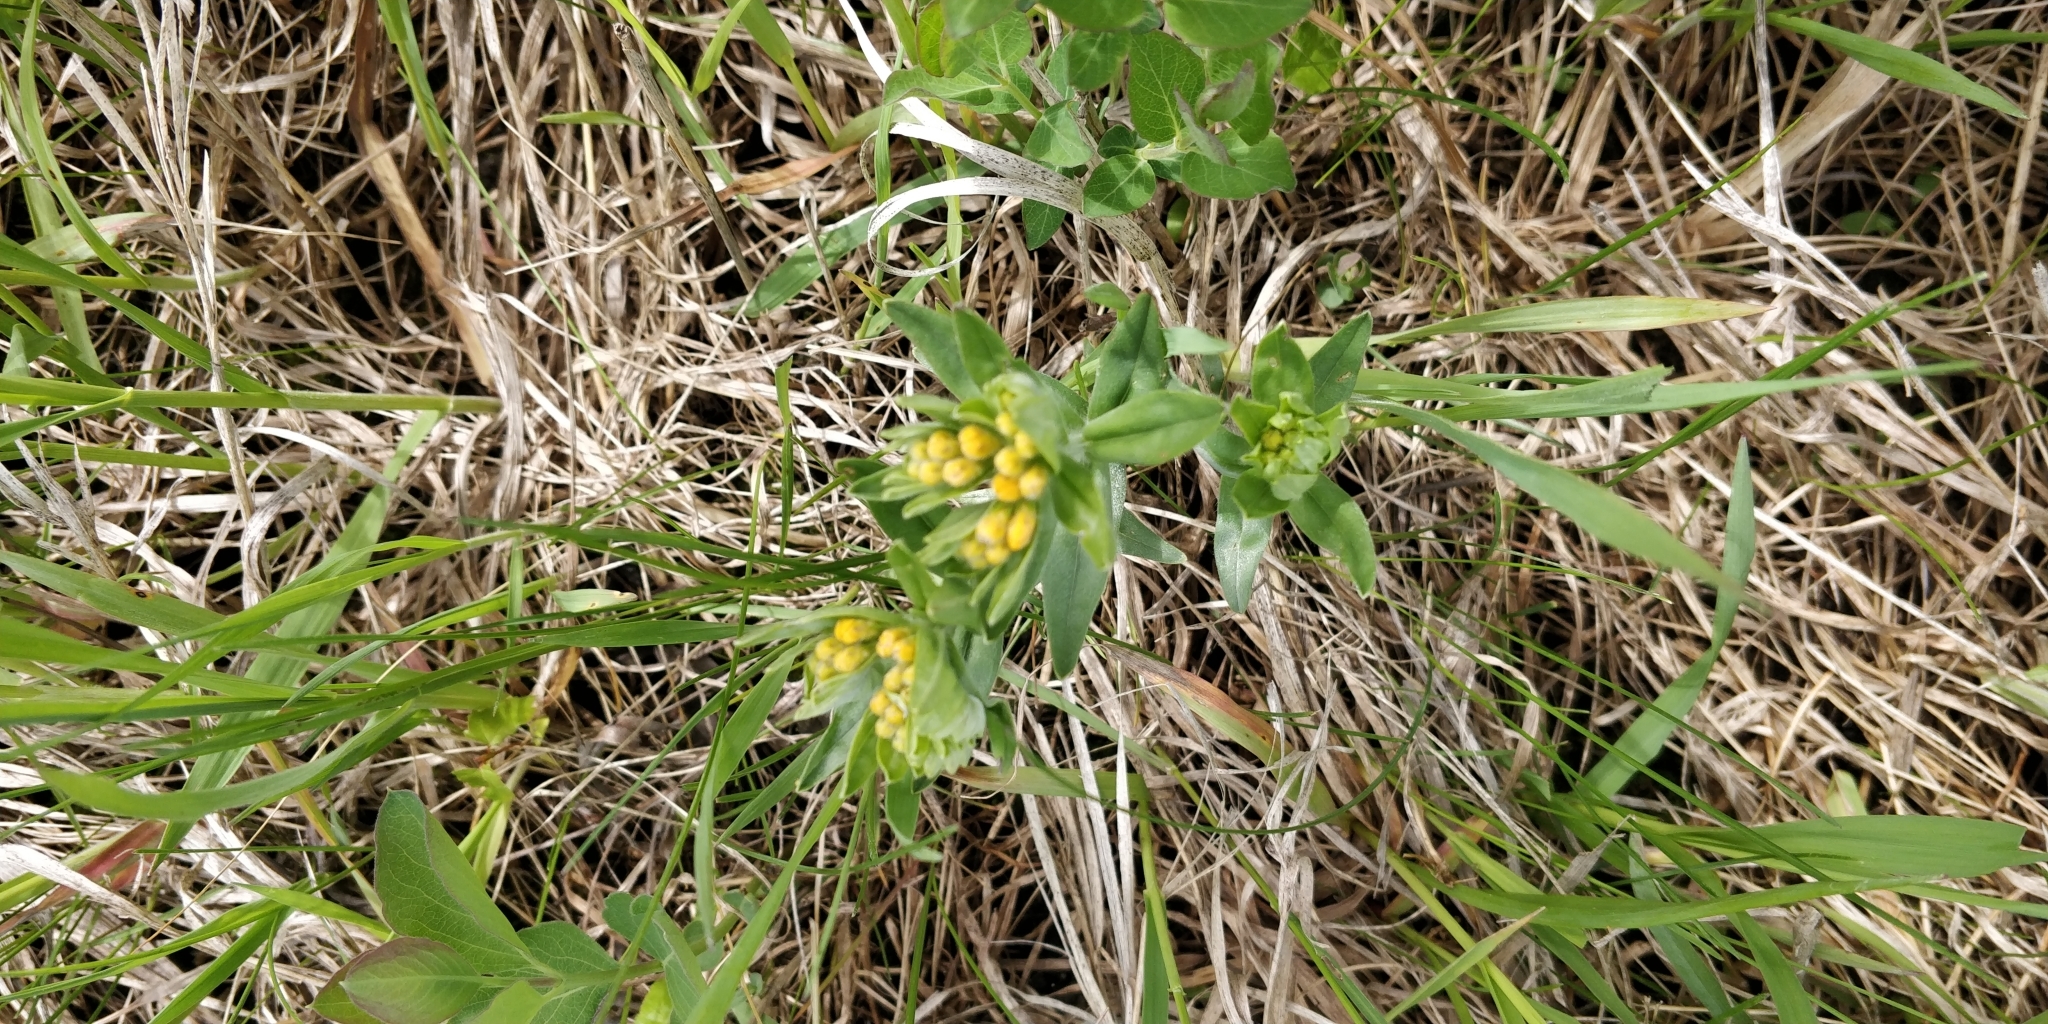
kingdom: Plantae
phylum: Tracheophyta
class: Magnoliopsida
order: Boraginales
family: Boraginaceae
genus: Lithospermum
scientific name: Lithospermum canescens
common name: Hoary puccoon
